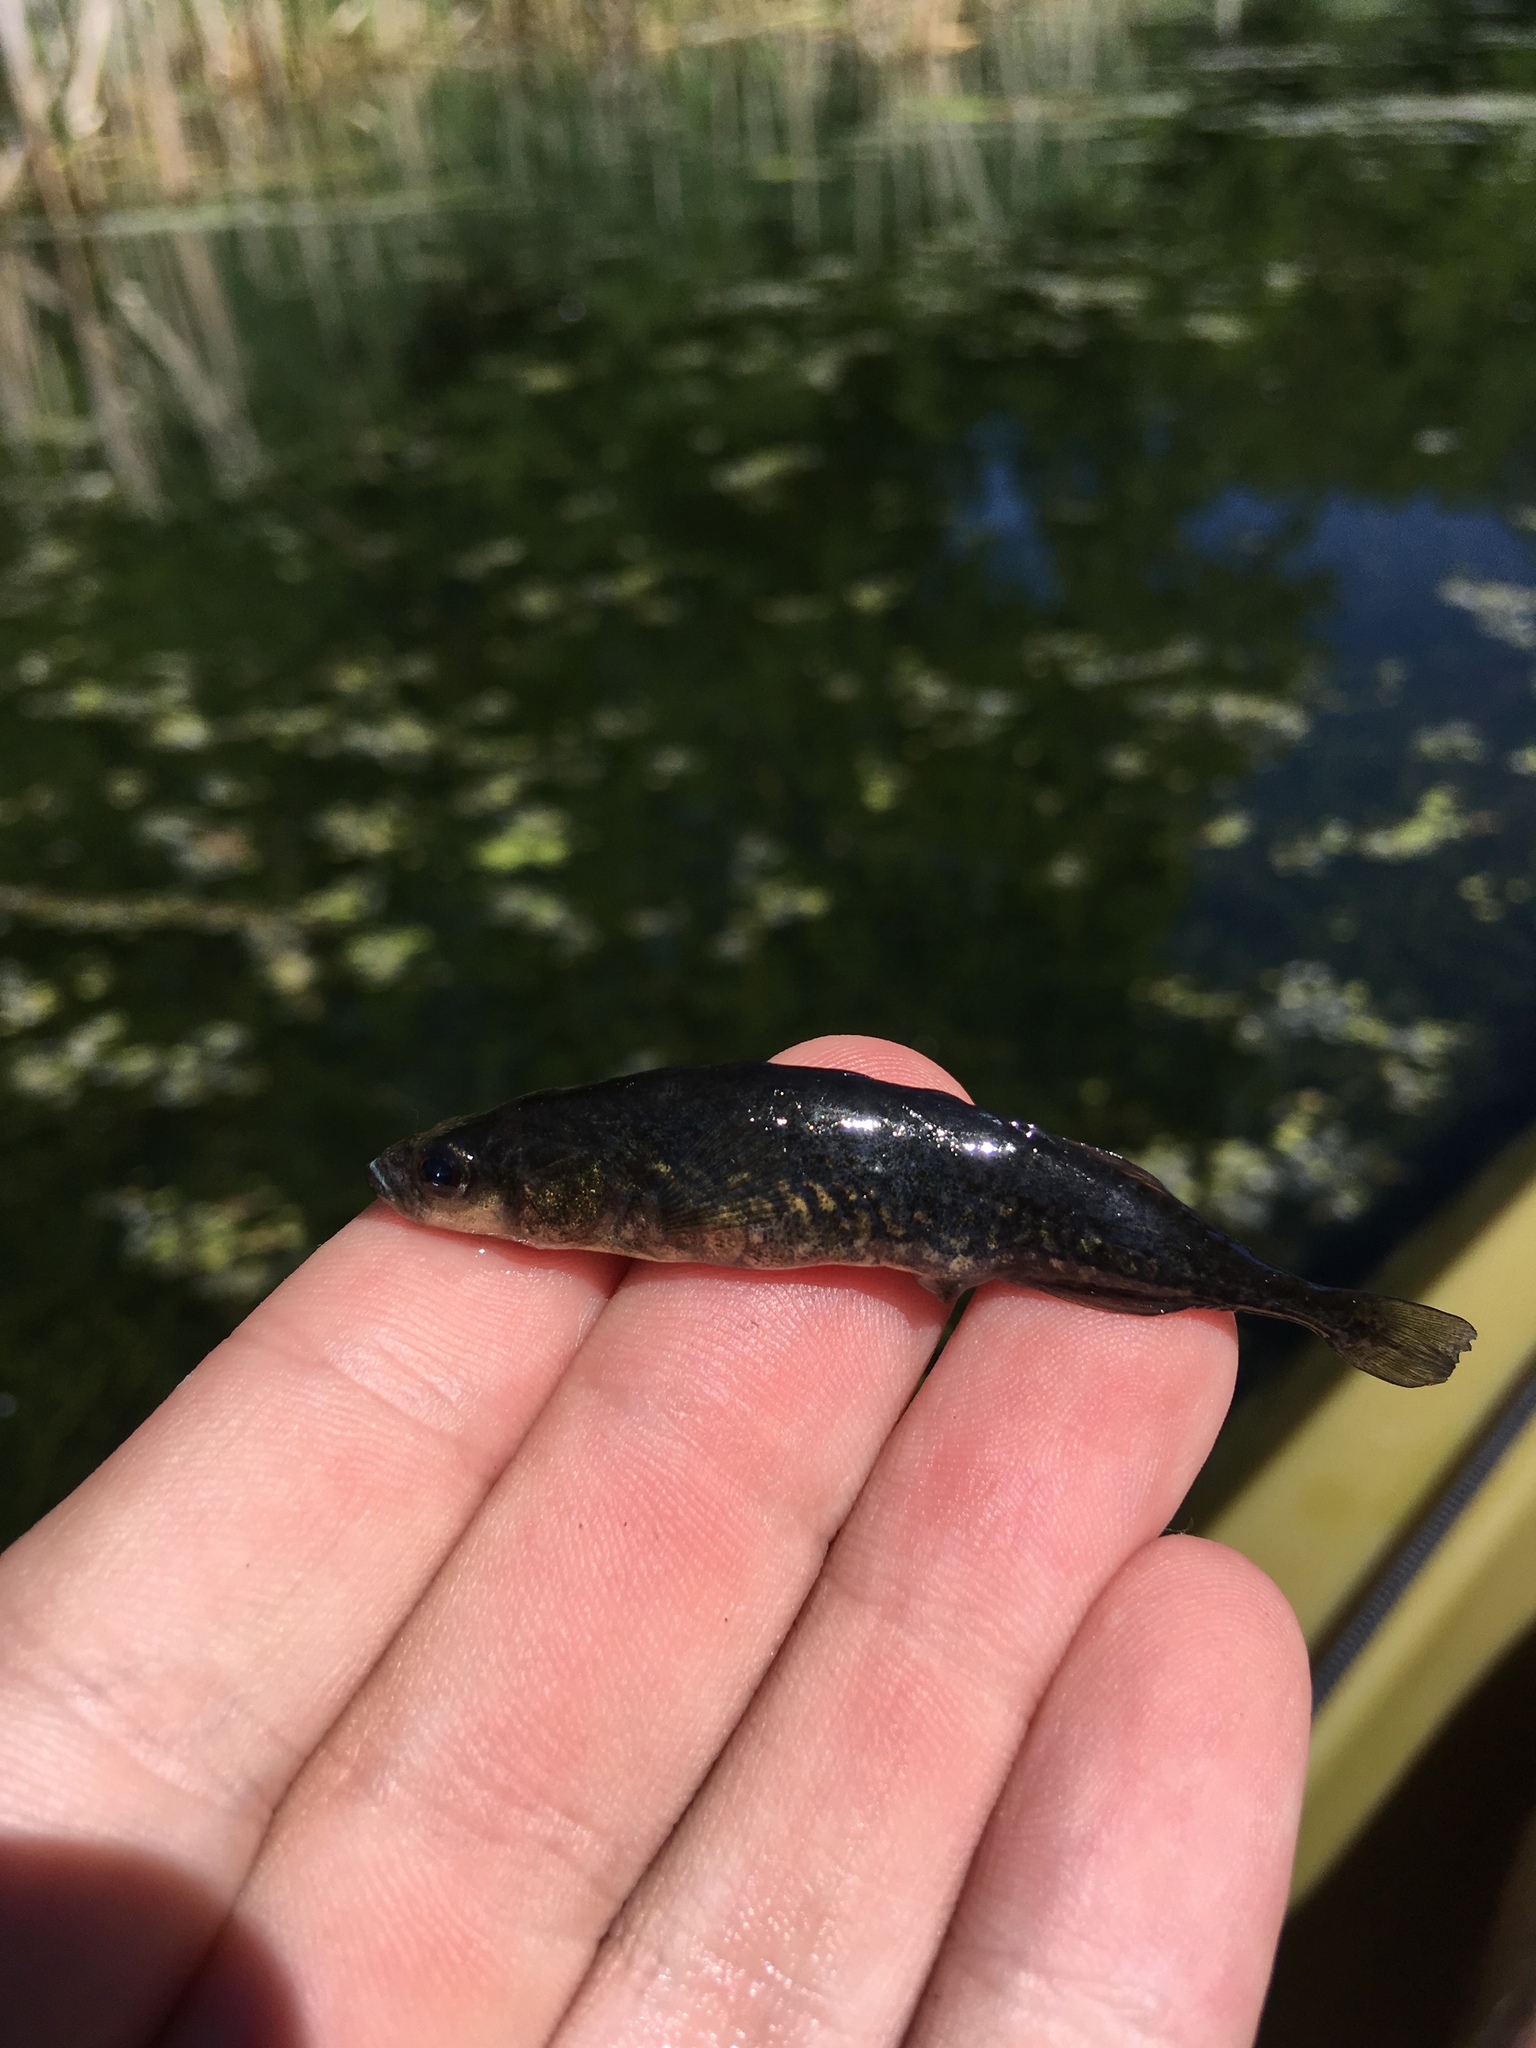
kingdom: Animalia
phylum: Chordata
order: Gasterosteiformes
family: Gasterosteidae
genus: Culaea
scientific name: Culaea inconstans
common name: Brook stickleback
